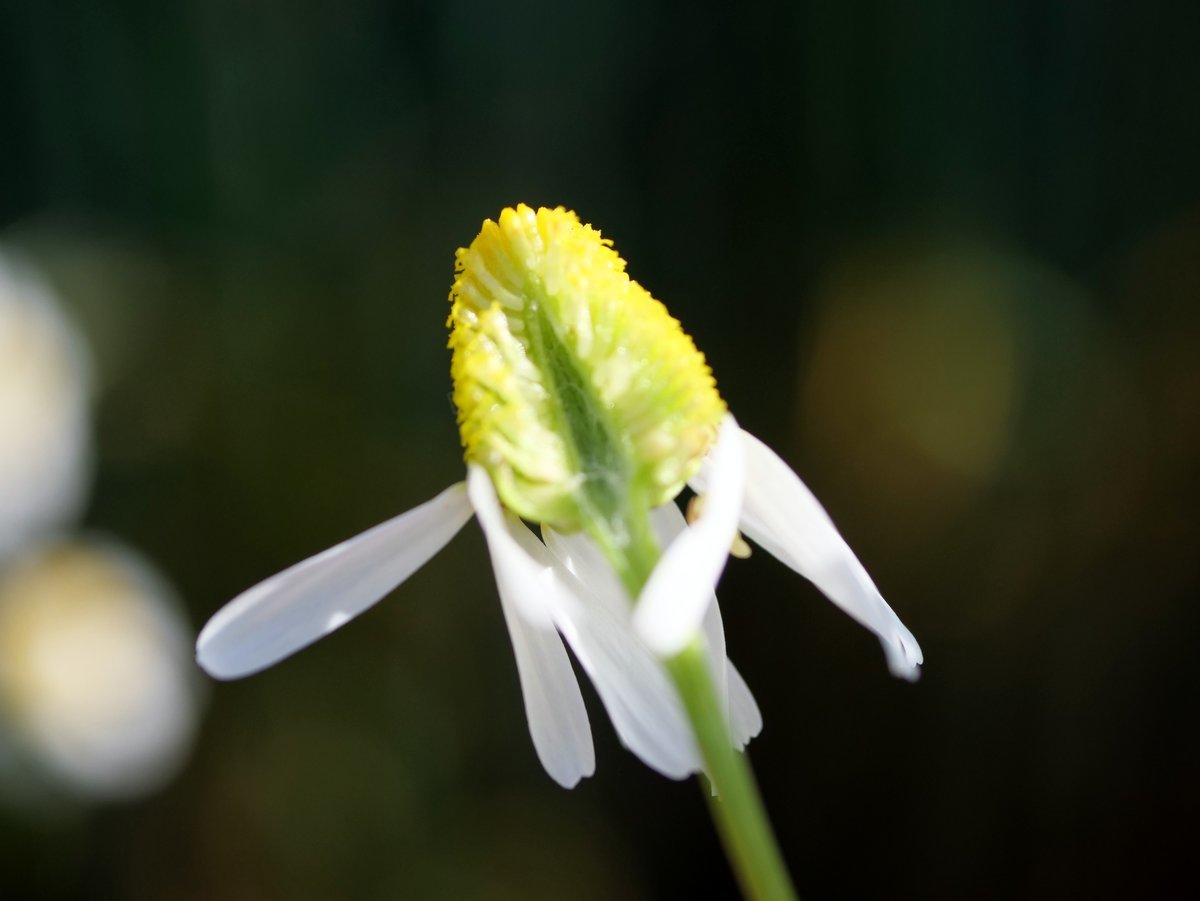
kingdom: Plantae
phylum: Tracheophyta
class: Magnoliopsida
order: Asterales
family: Asteraceae
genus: Matricaria
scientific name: Matricaria chamomilla
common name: Scented mayweed
